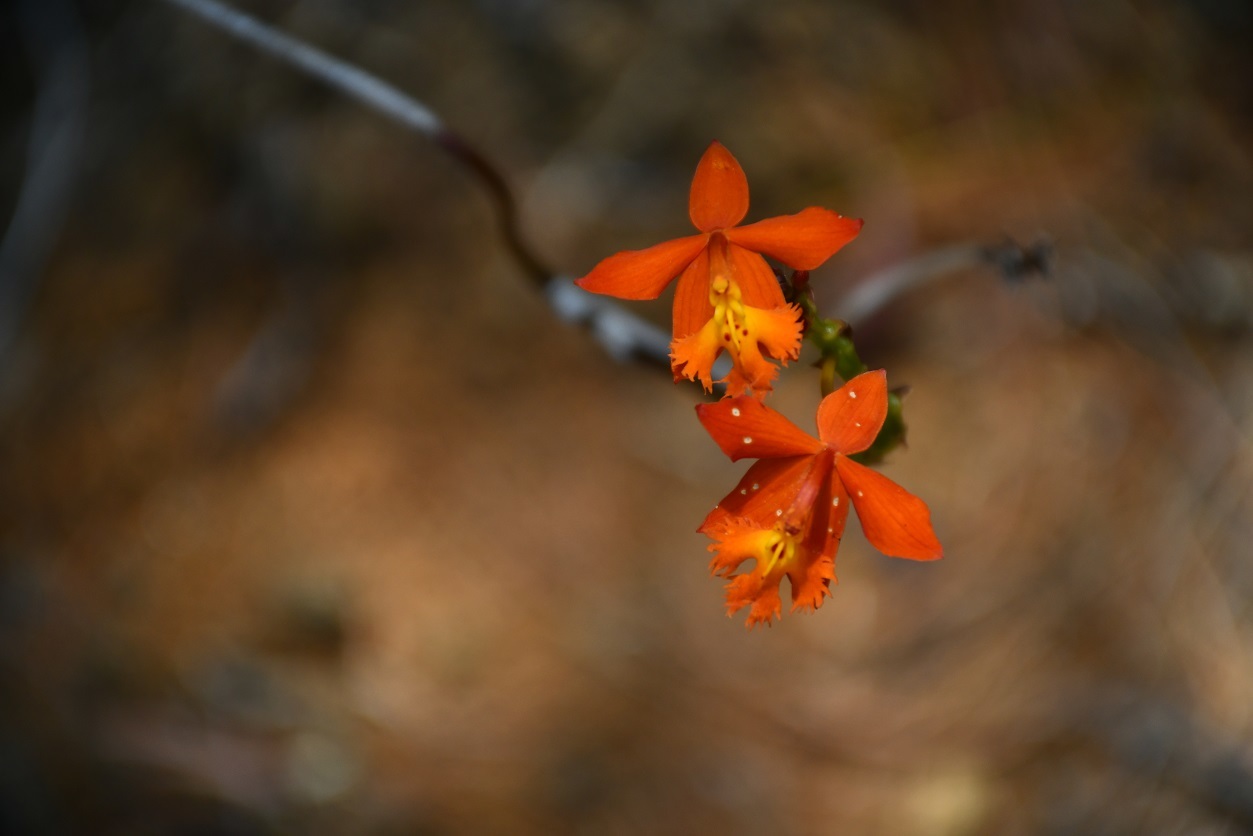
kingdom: Plantae
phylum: Tracheophyta
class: Liliopsida
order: Asparagales
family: Orchidaceae
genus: Epidendrum
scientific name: Epidendrum radicans
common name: Fire star orchid
